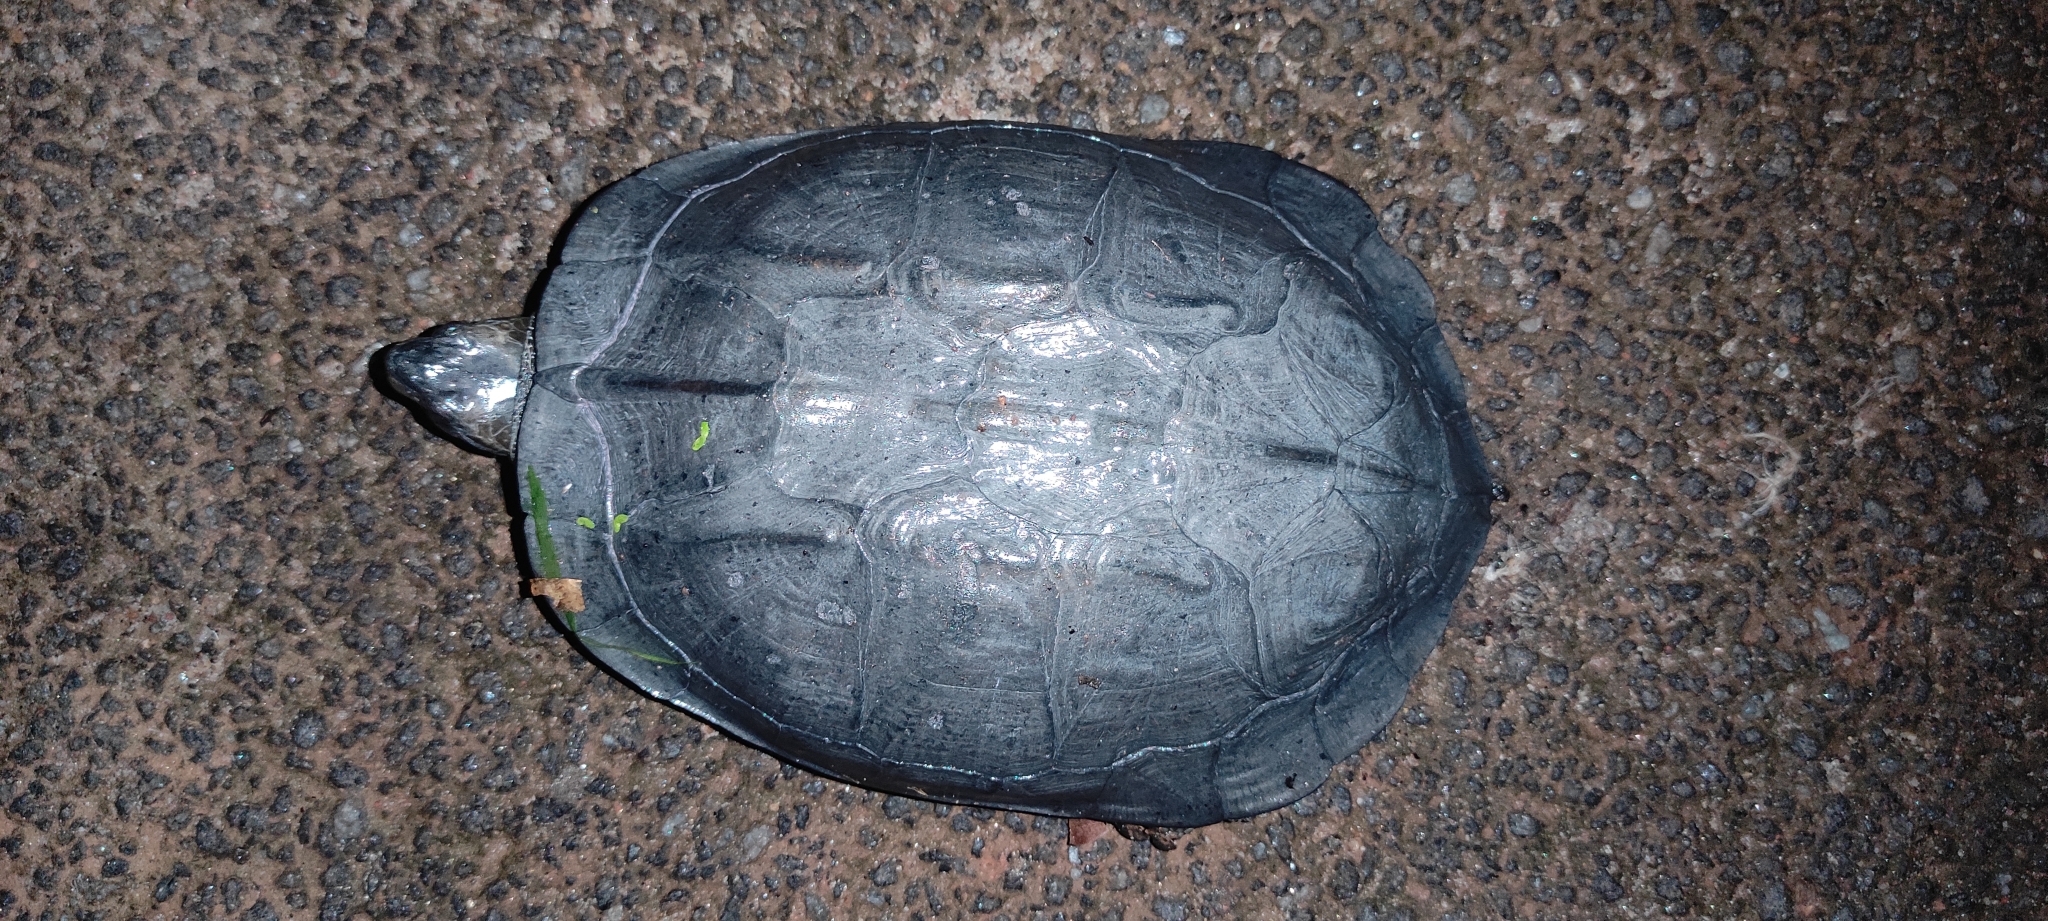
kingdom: Animalia
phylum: Chordata
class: Testudines
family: Geoemydidae
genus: Melanochelys
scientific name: Melanochelys trijuga
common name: Indian black turtle
